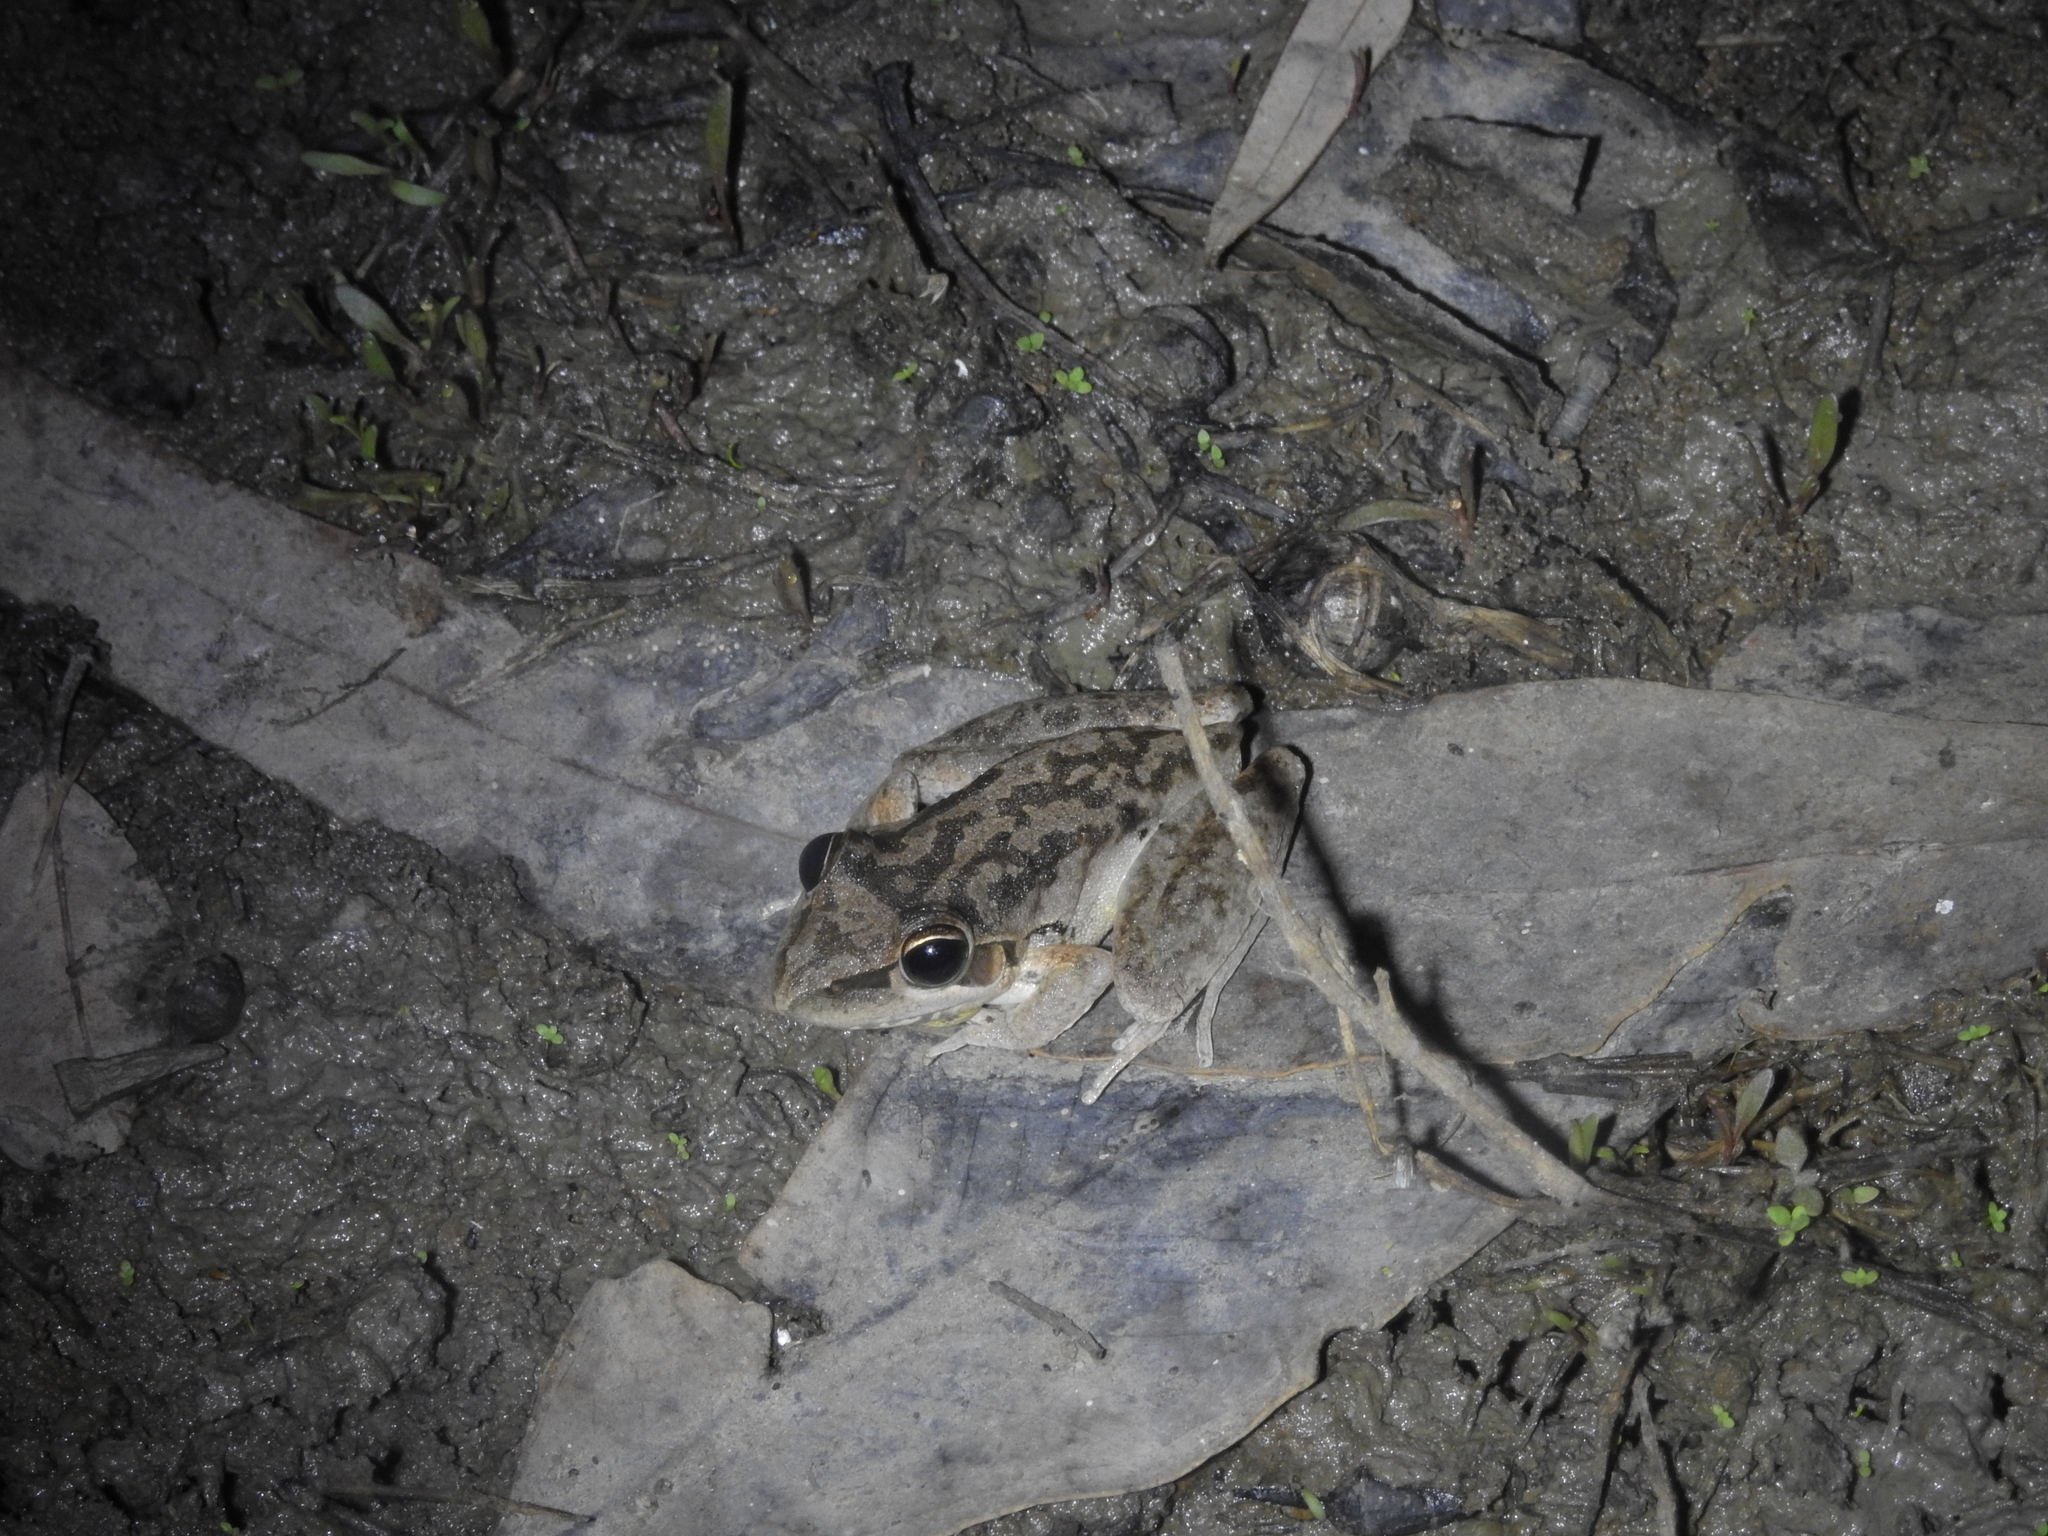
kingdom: Animalia
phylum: Chordata
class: Amphibia
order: Anura
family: Pelodryadidae
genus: Litoria
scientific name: Litoria latopalmata
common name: Broad-palmed rocket frog
